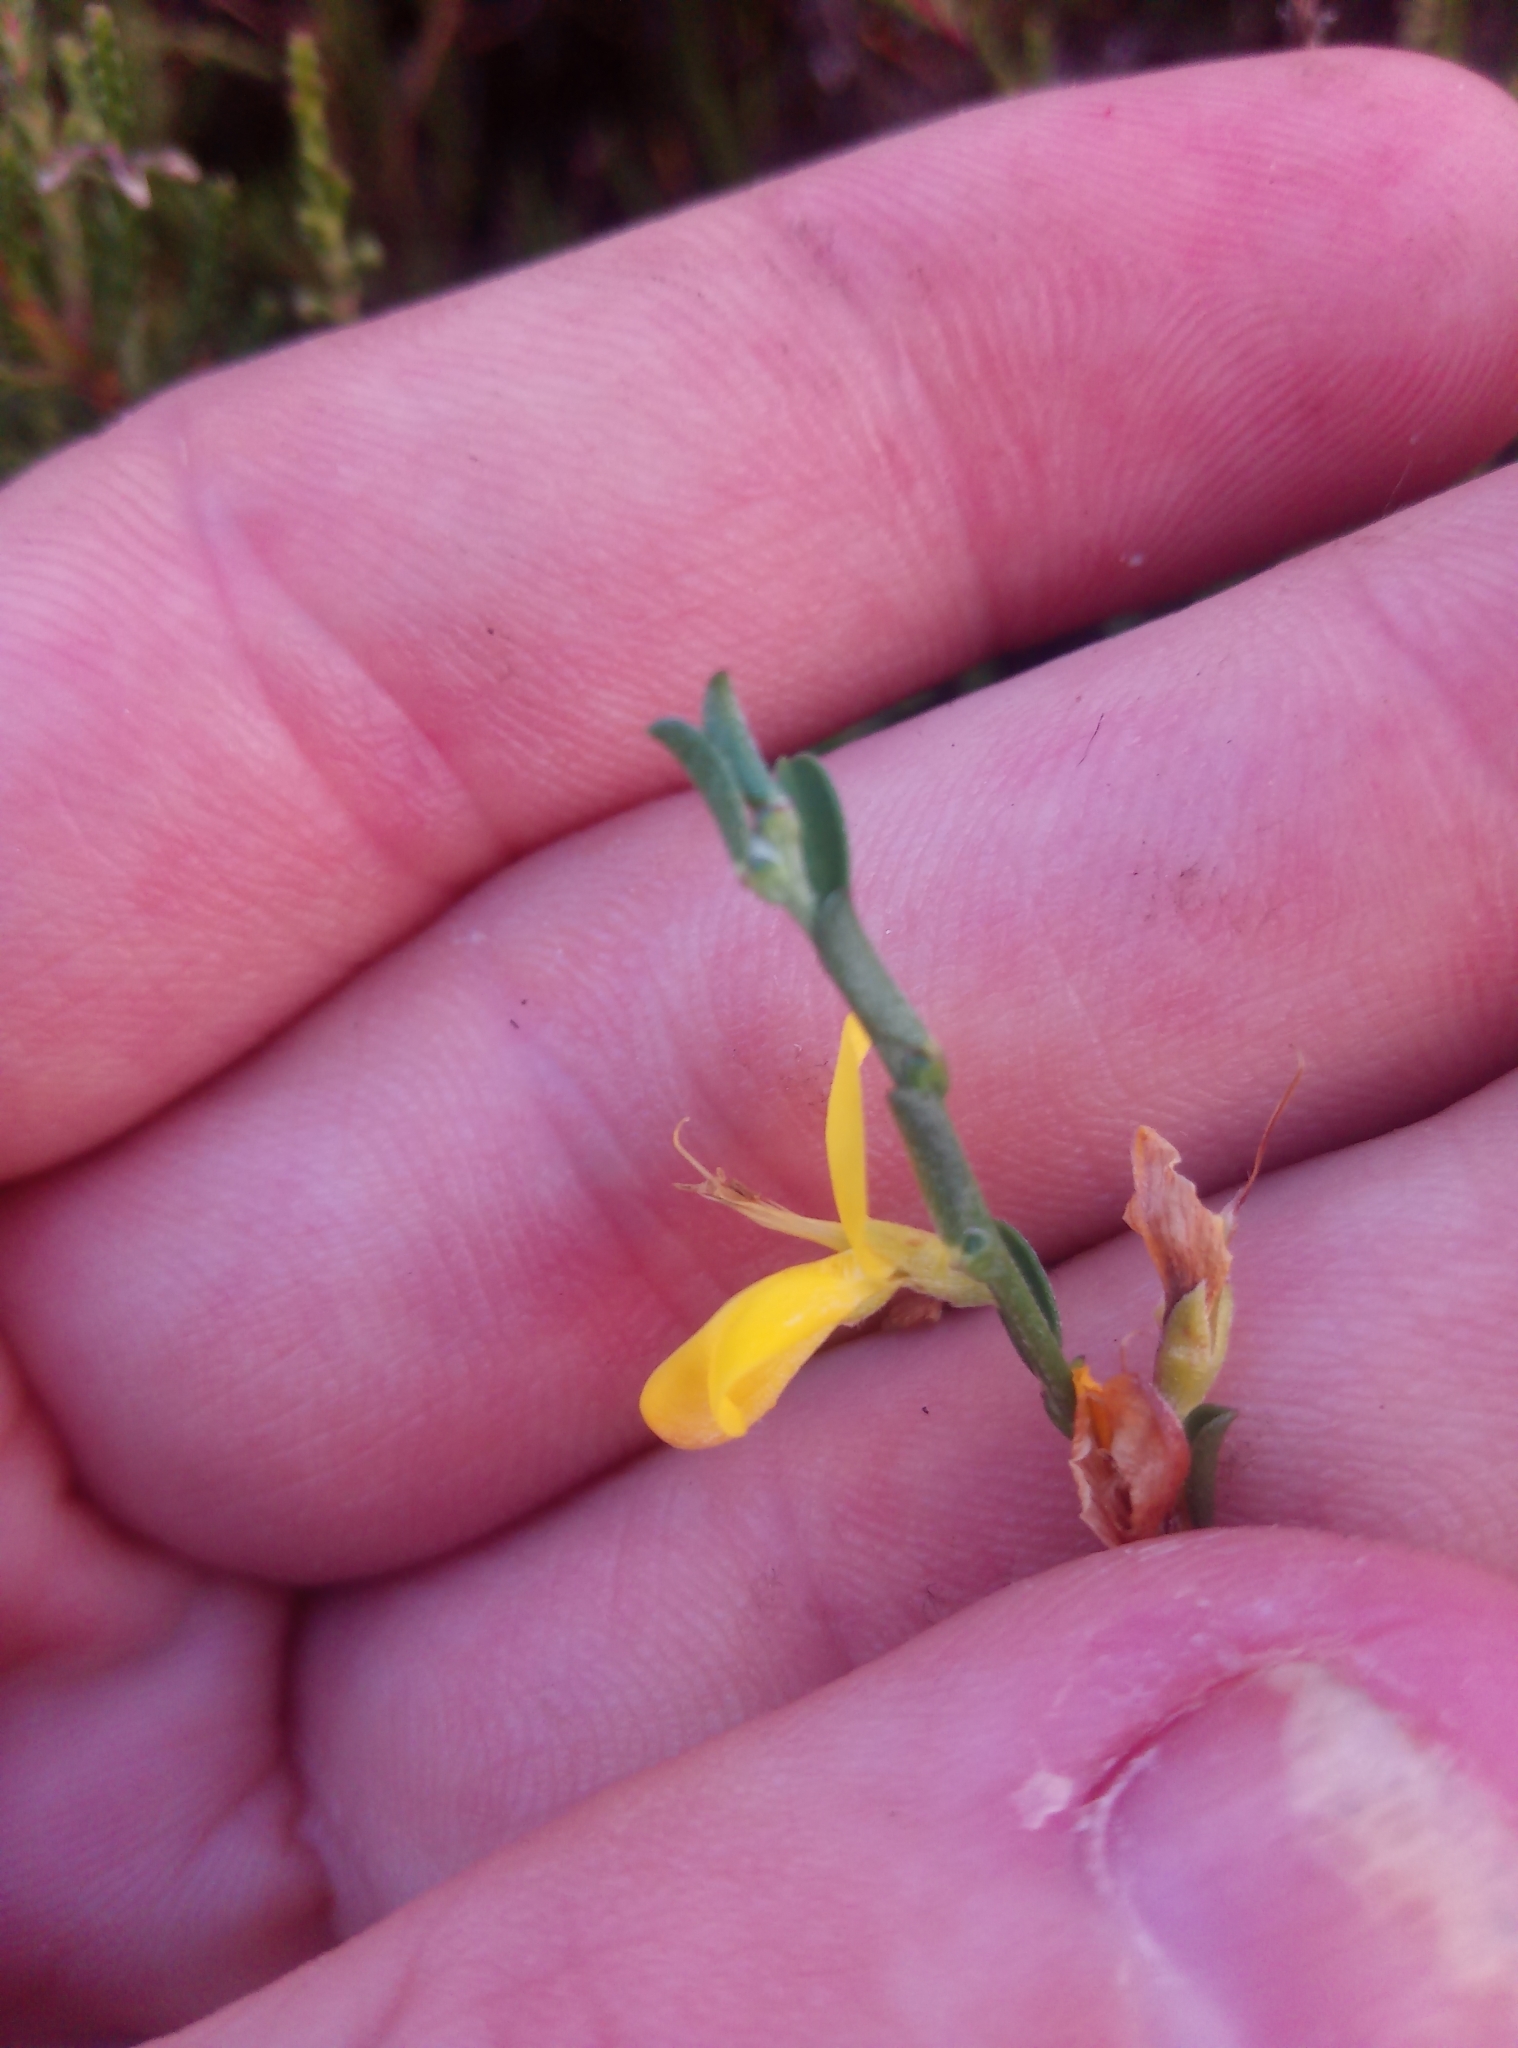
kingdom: Plantae
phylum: Tracheophyta
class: Magnoliopsida
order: Fabales
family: Fabaceae
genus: Genista
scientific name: Genista pilosa
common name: Hairy greenweed
